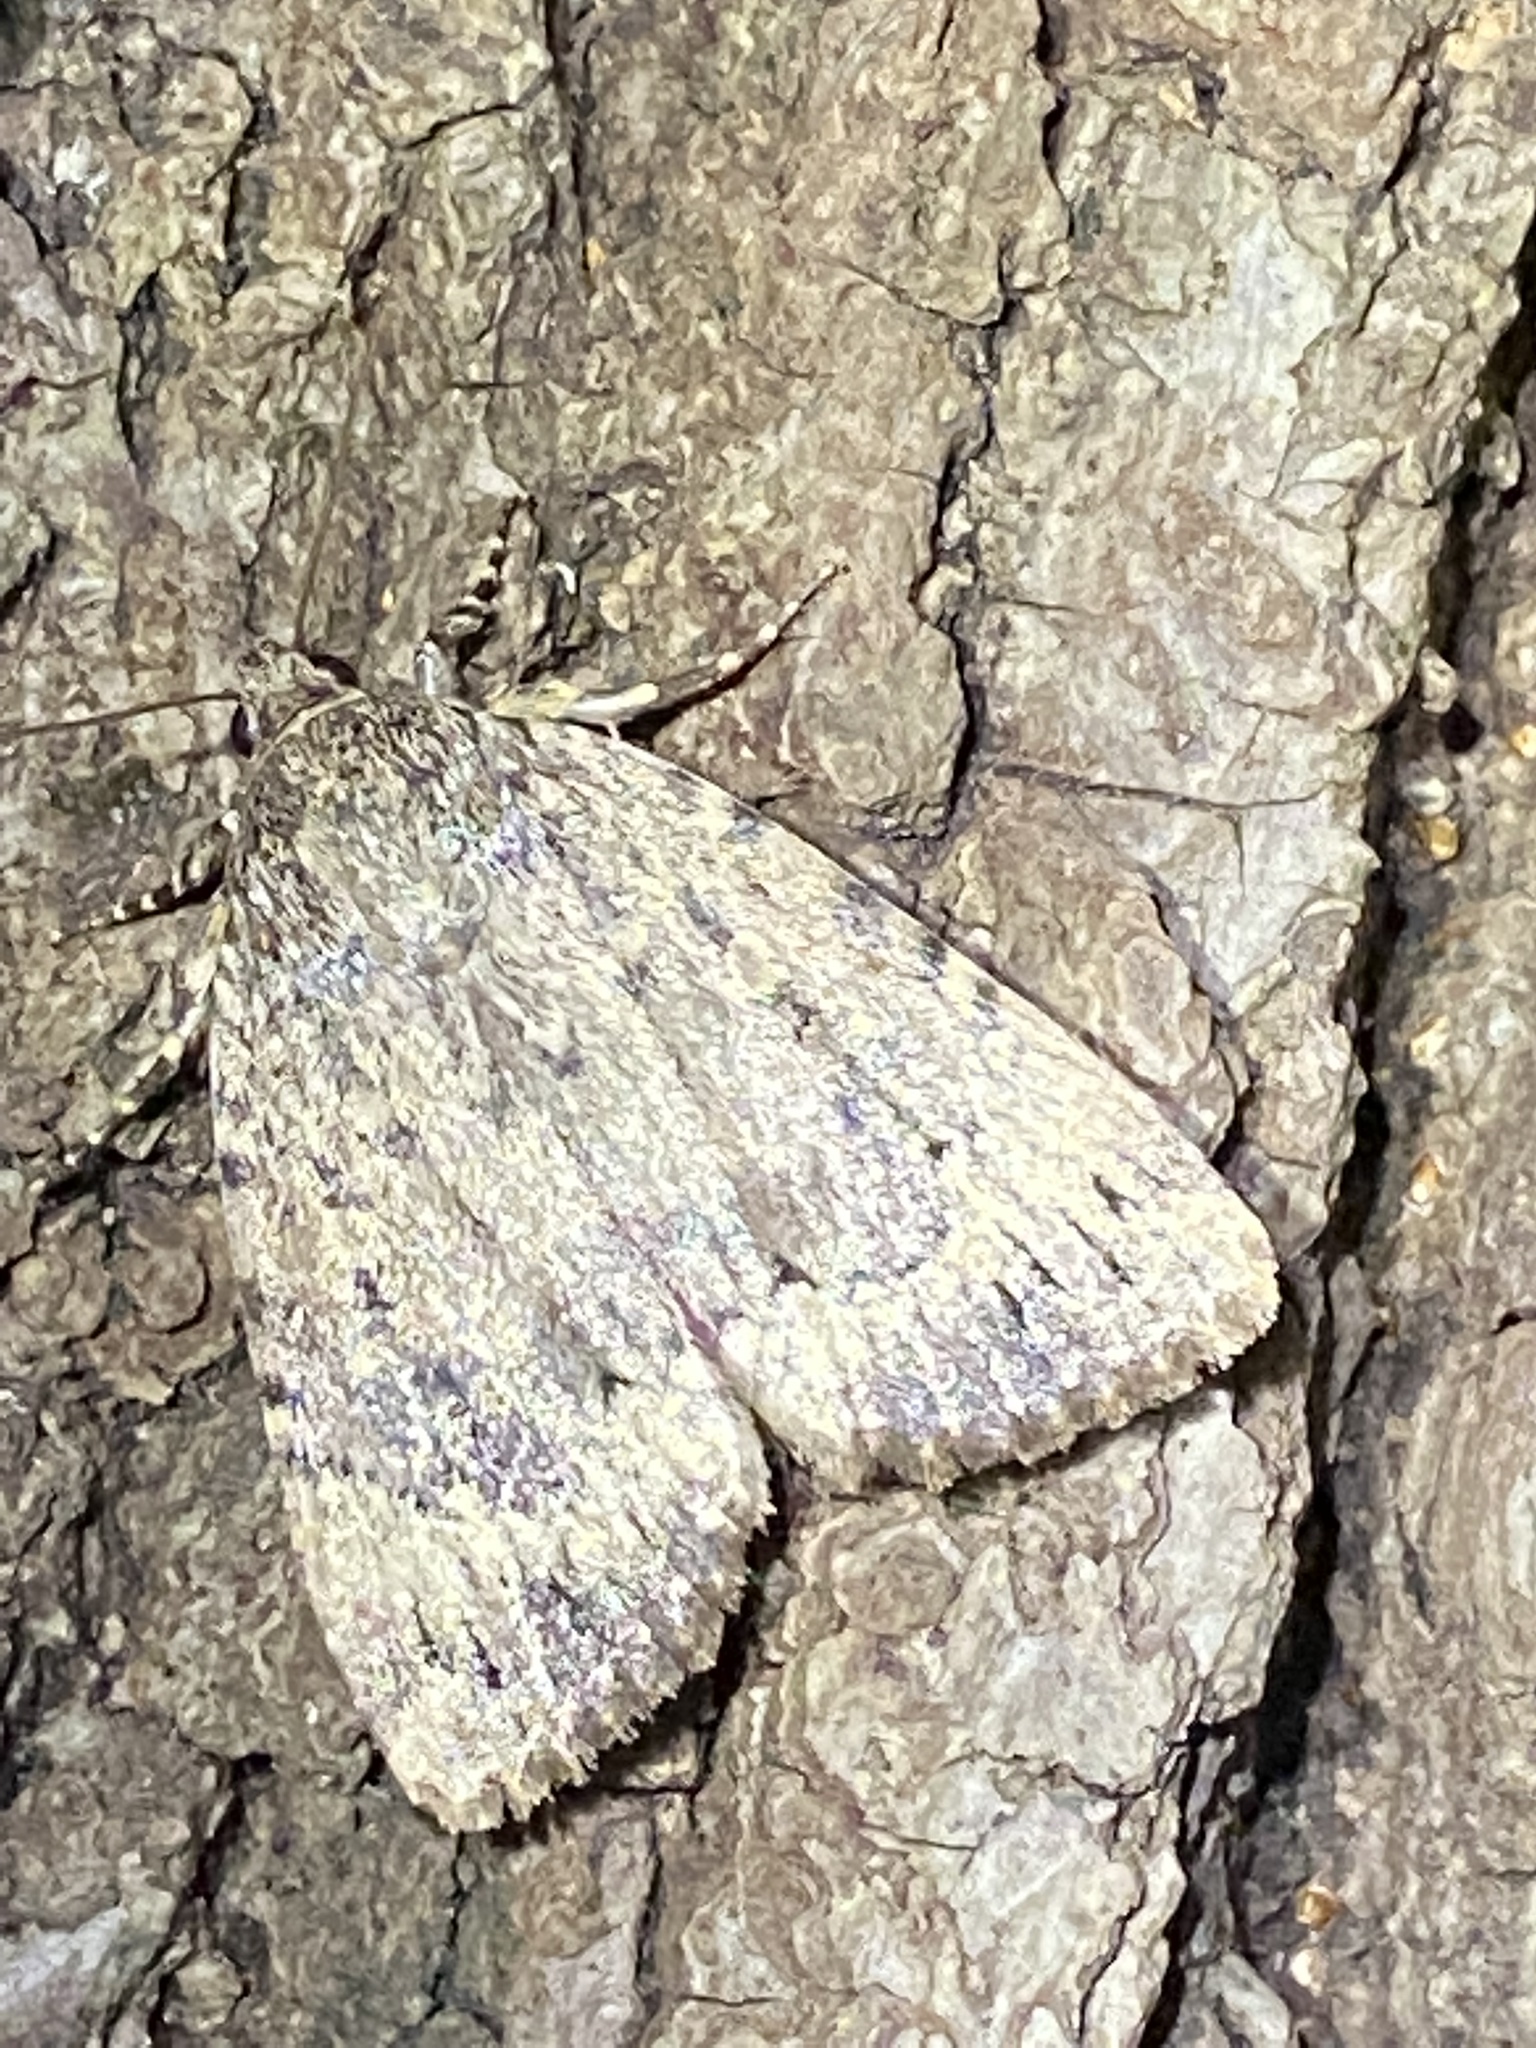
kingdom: Animalia
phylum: Arthropoda
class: Insecta
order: Lepidoptera
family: Noctuidae
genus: Amphipyra
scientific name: Amphipyra pyramidoides
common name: American copper underwing
